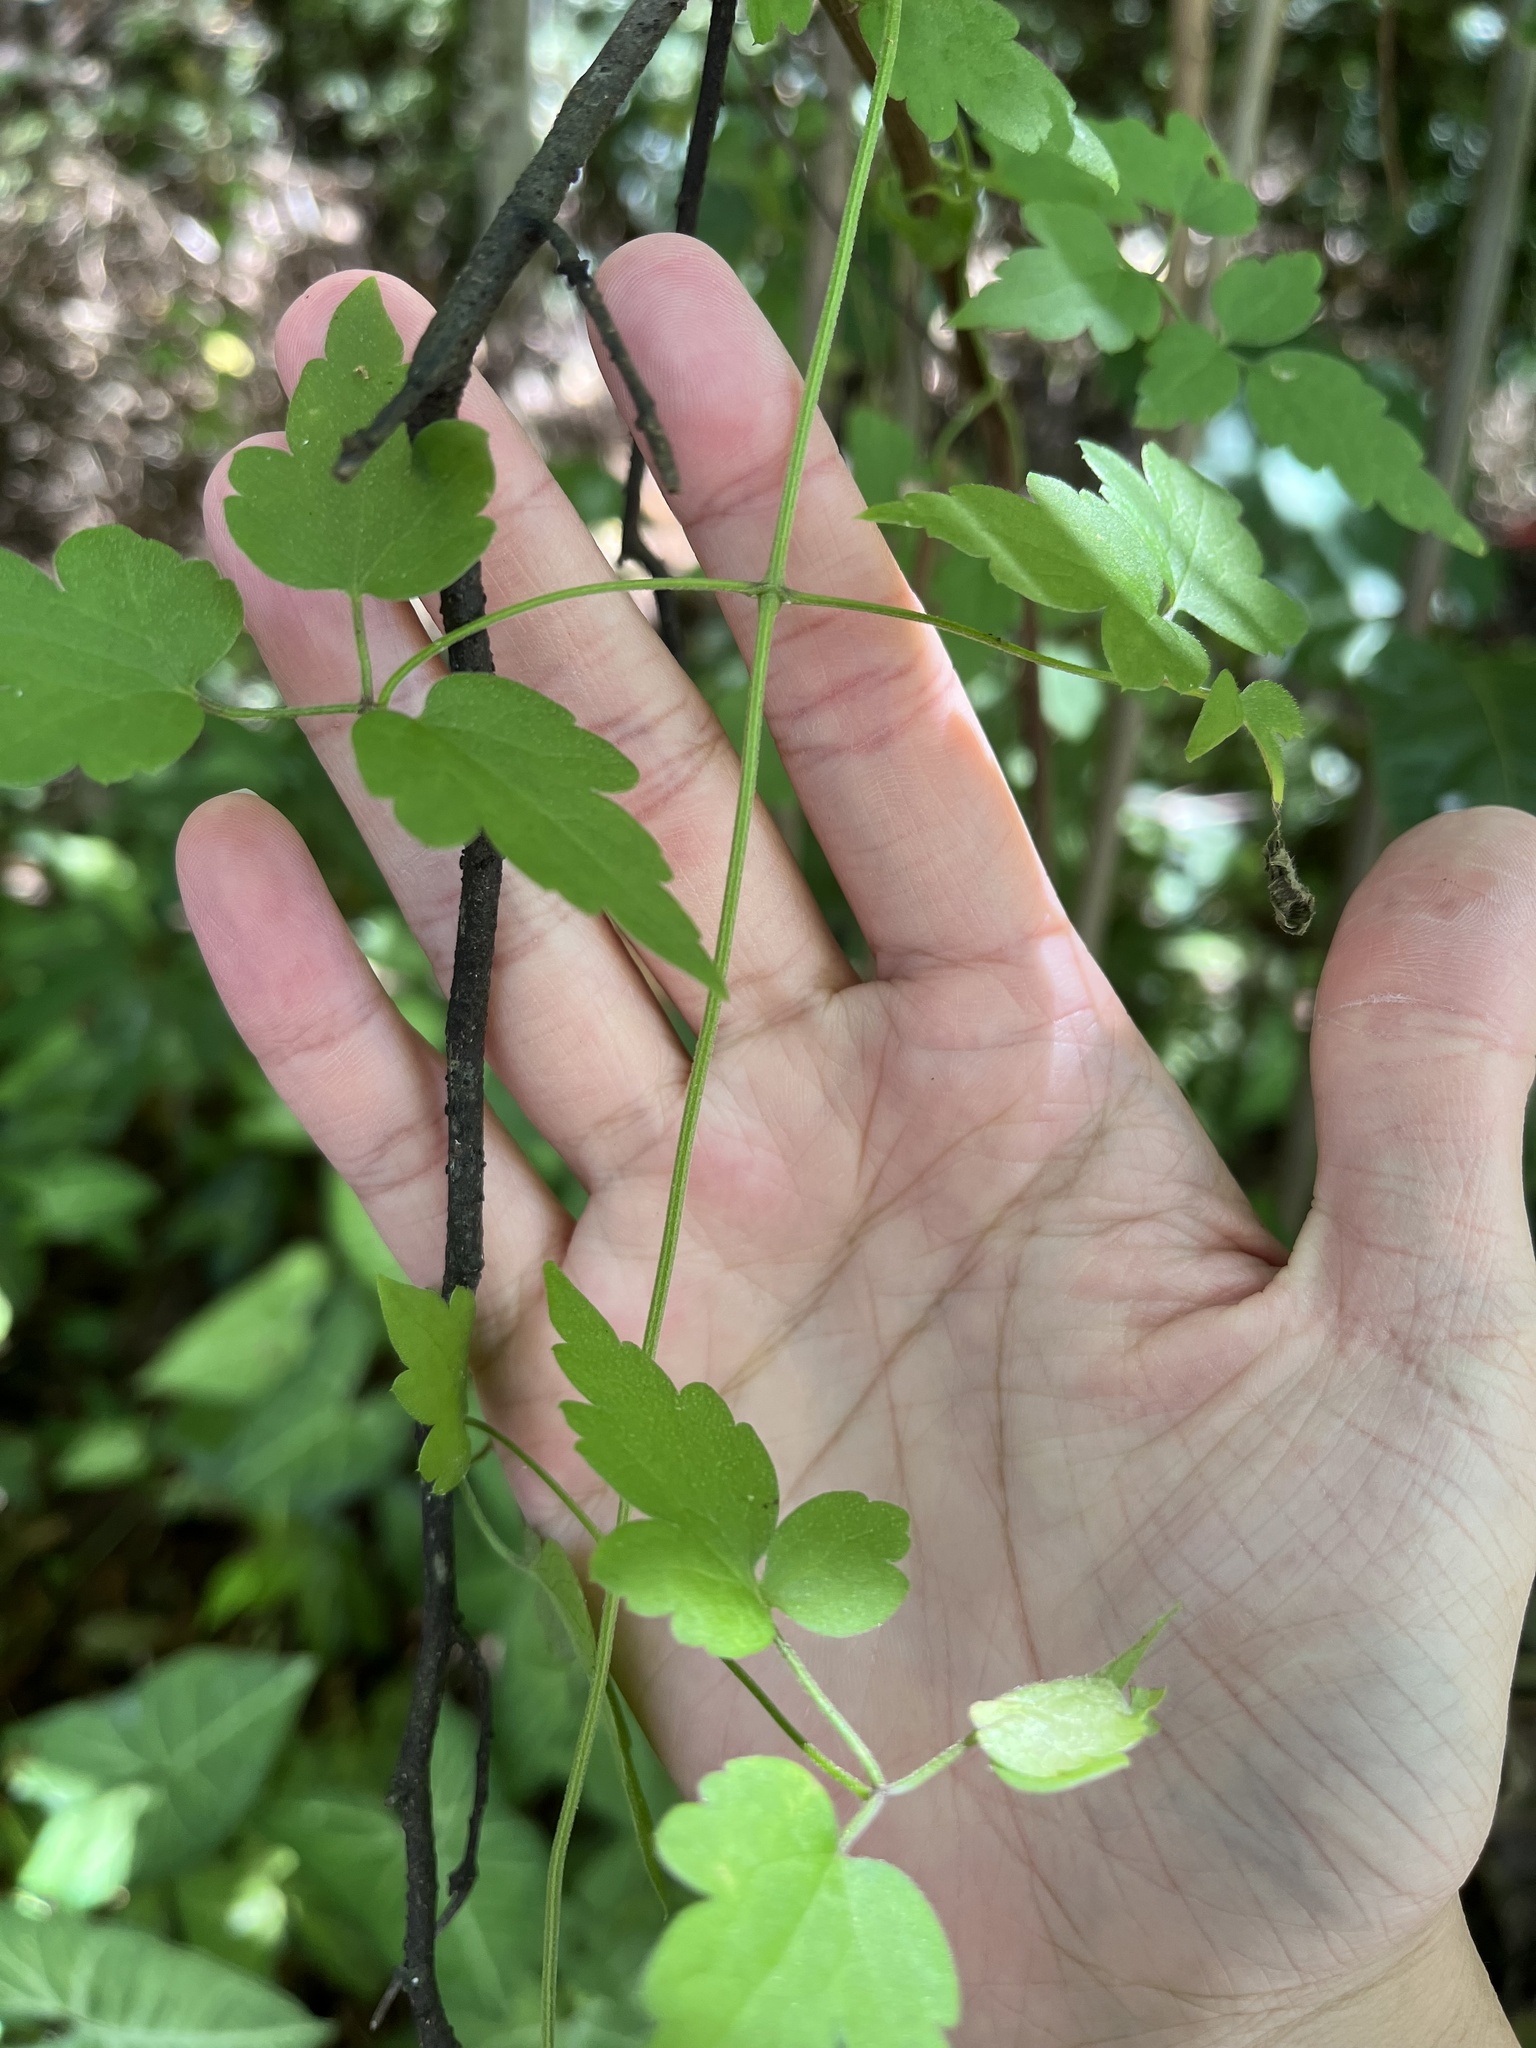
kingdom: Plantae
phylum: Tracheophyta
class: Magnoliopsida
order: Ranunculales
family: Ranunculaceae
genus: Clematis
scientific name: Clematis grata
